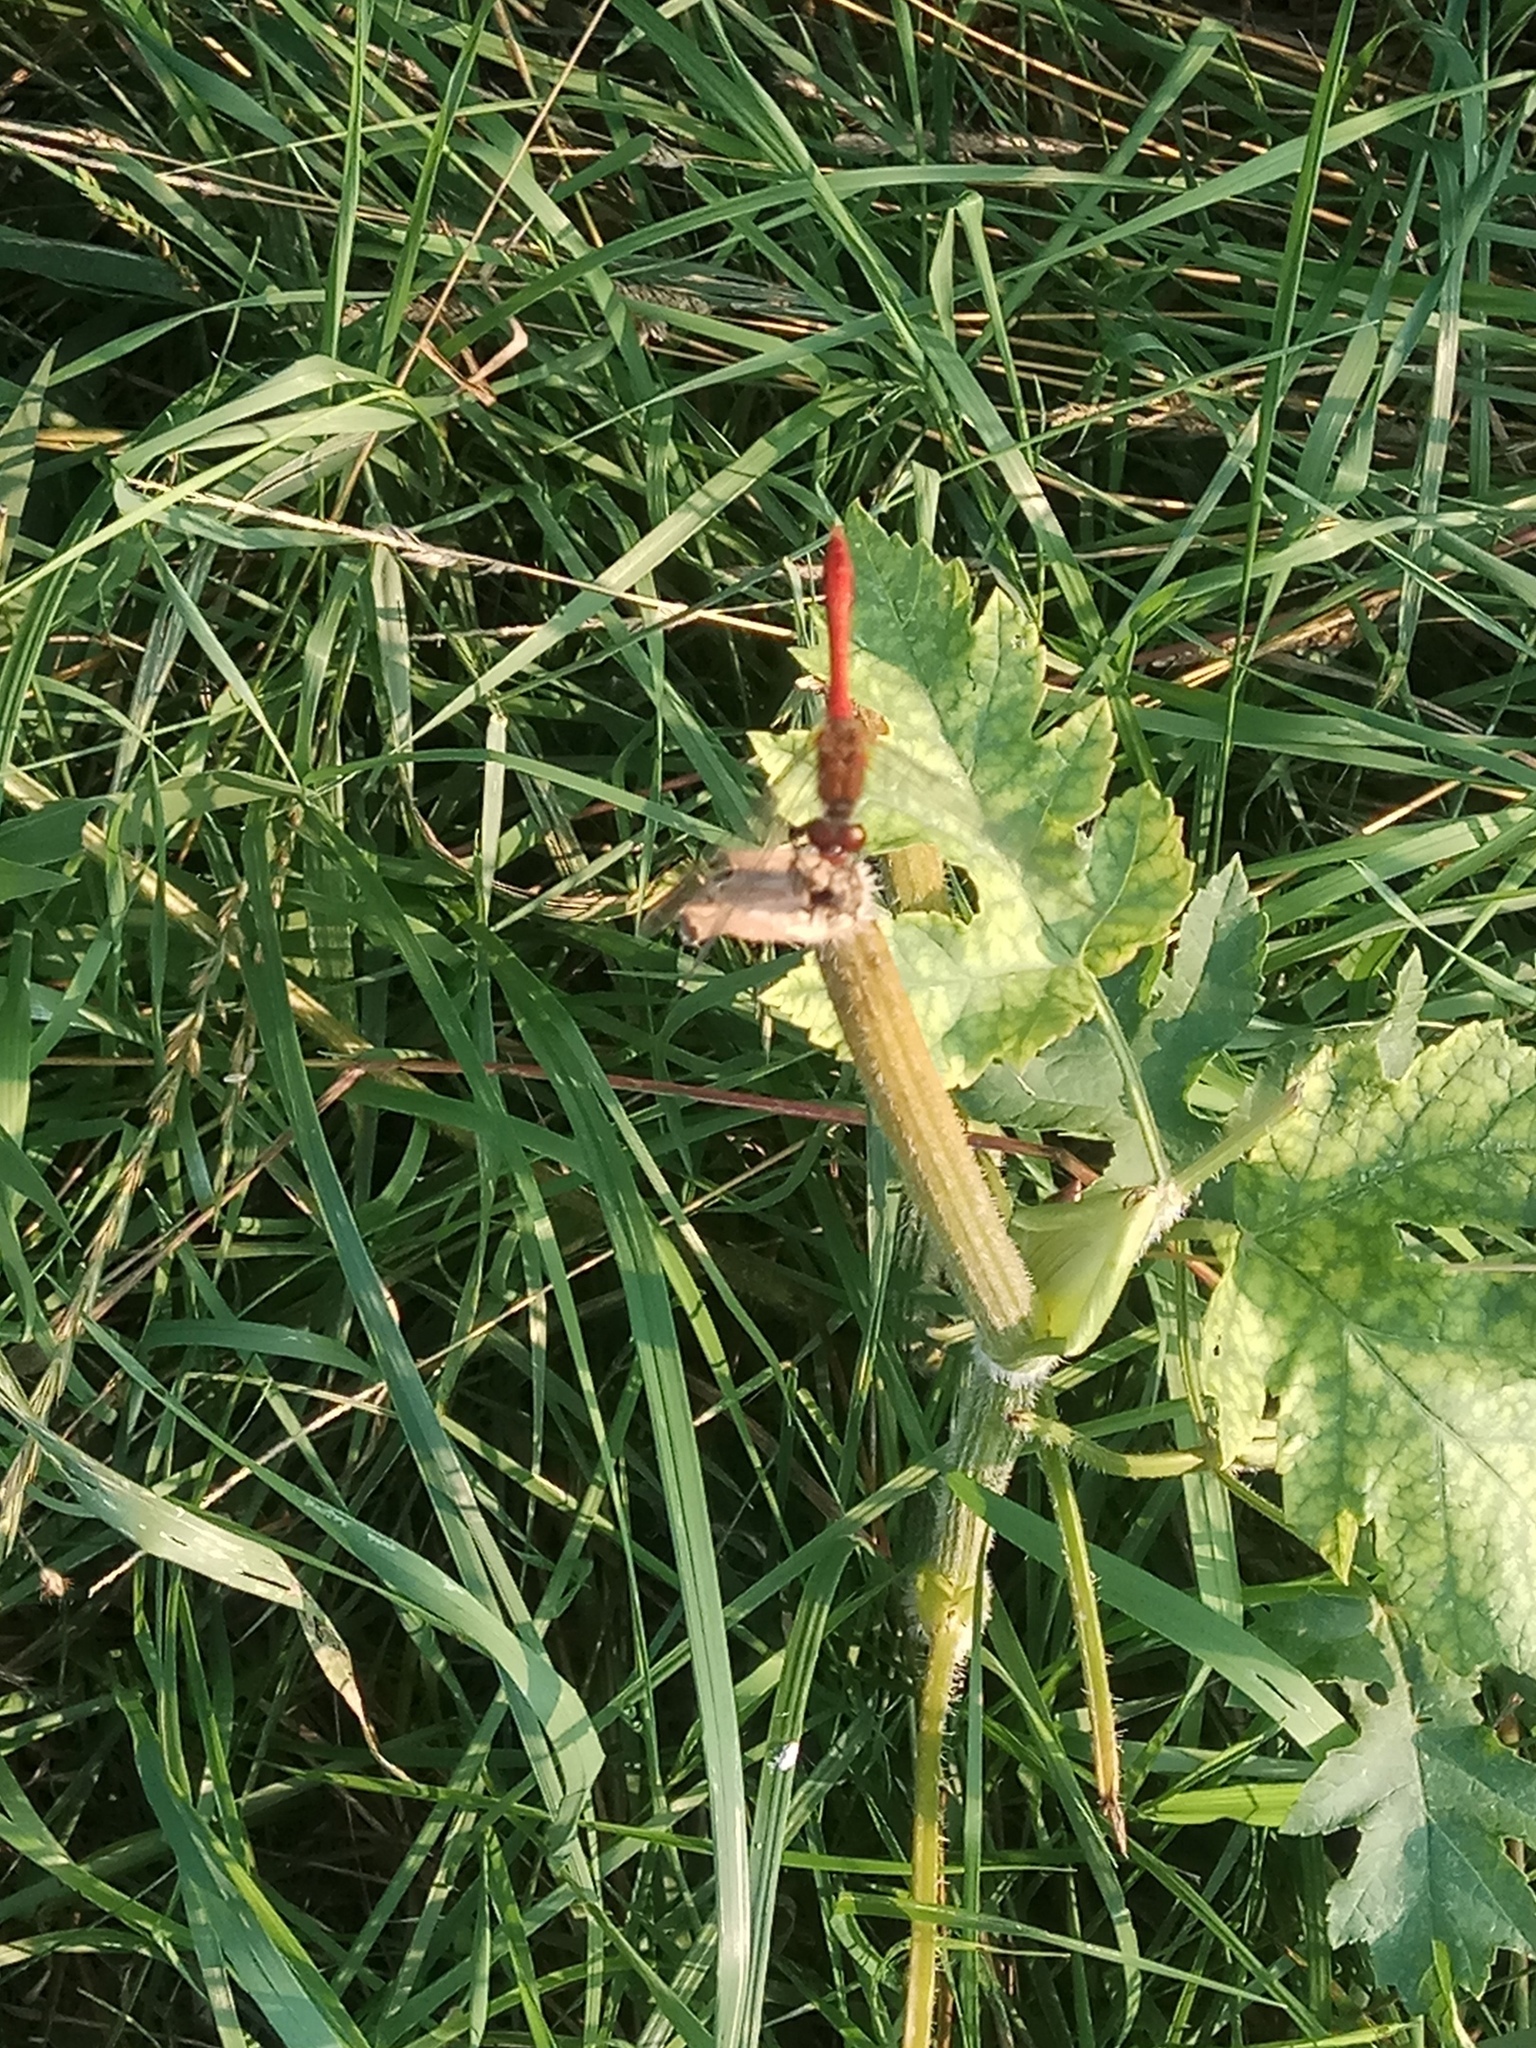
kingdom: Animalia
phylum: Arthropoda
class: Insecta
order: Odonata
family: Libellulidae
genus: Sympetrum
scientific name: Sympetrum sanguineum
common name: Ruddy darter
